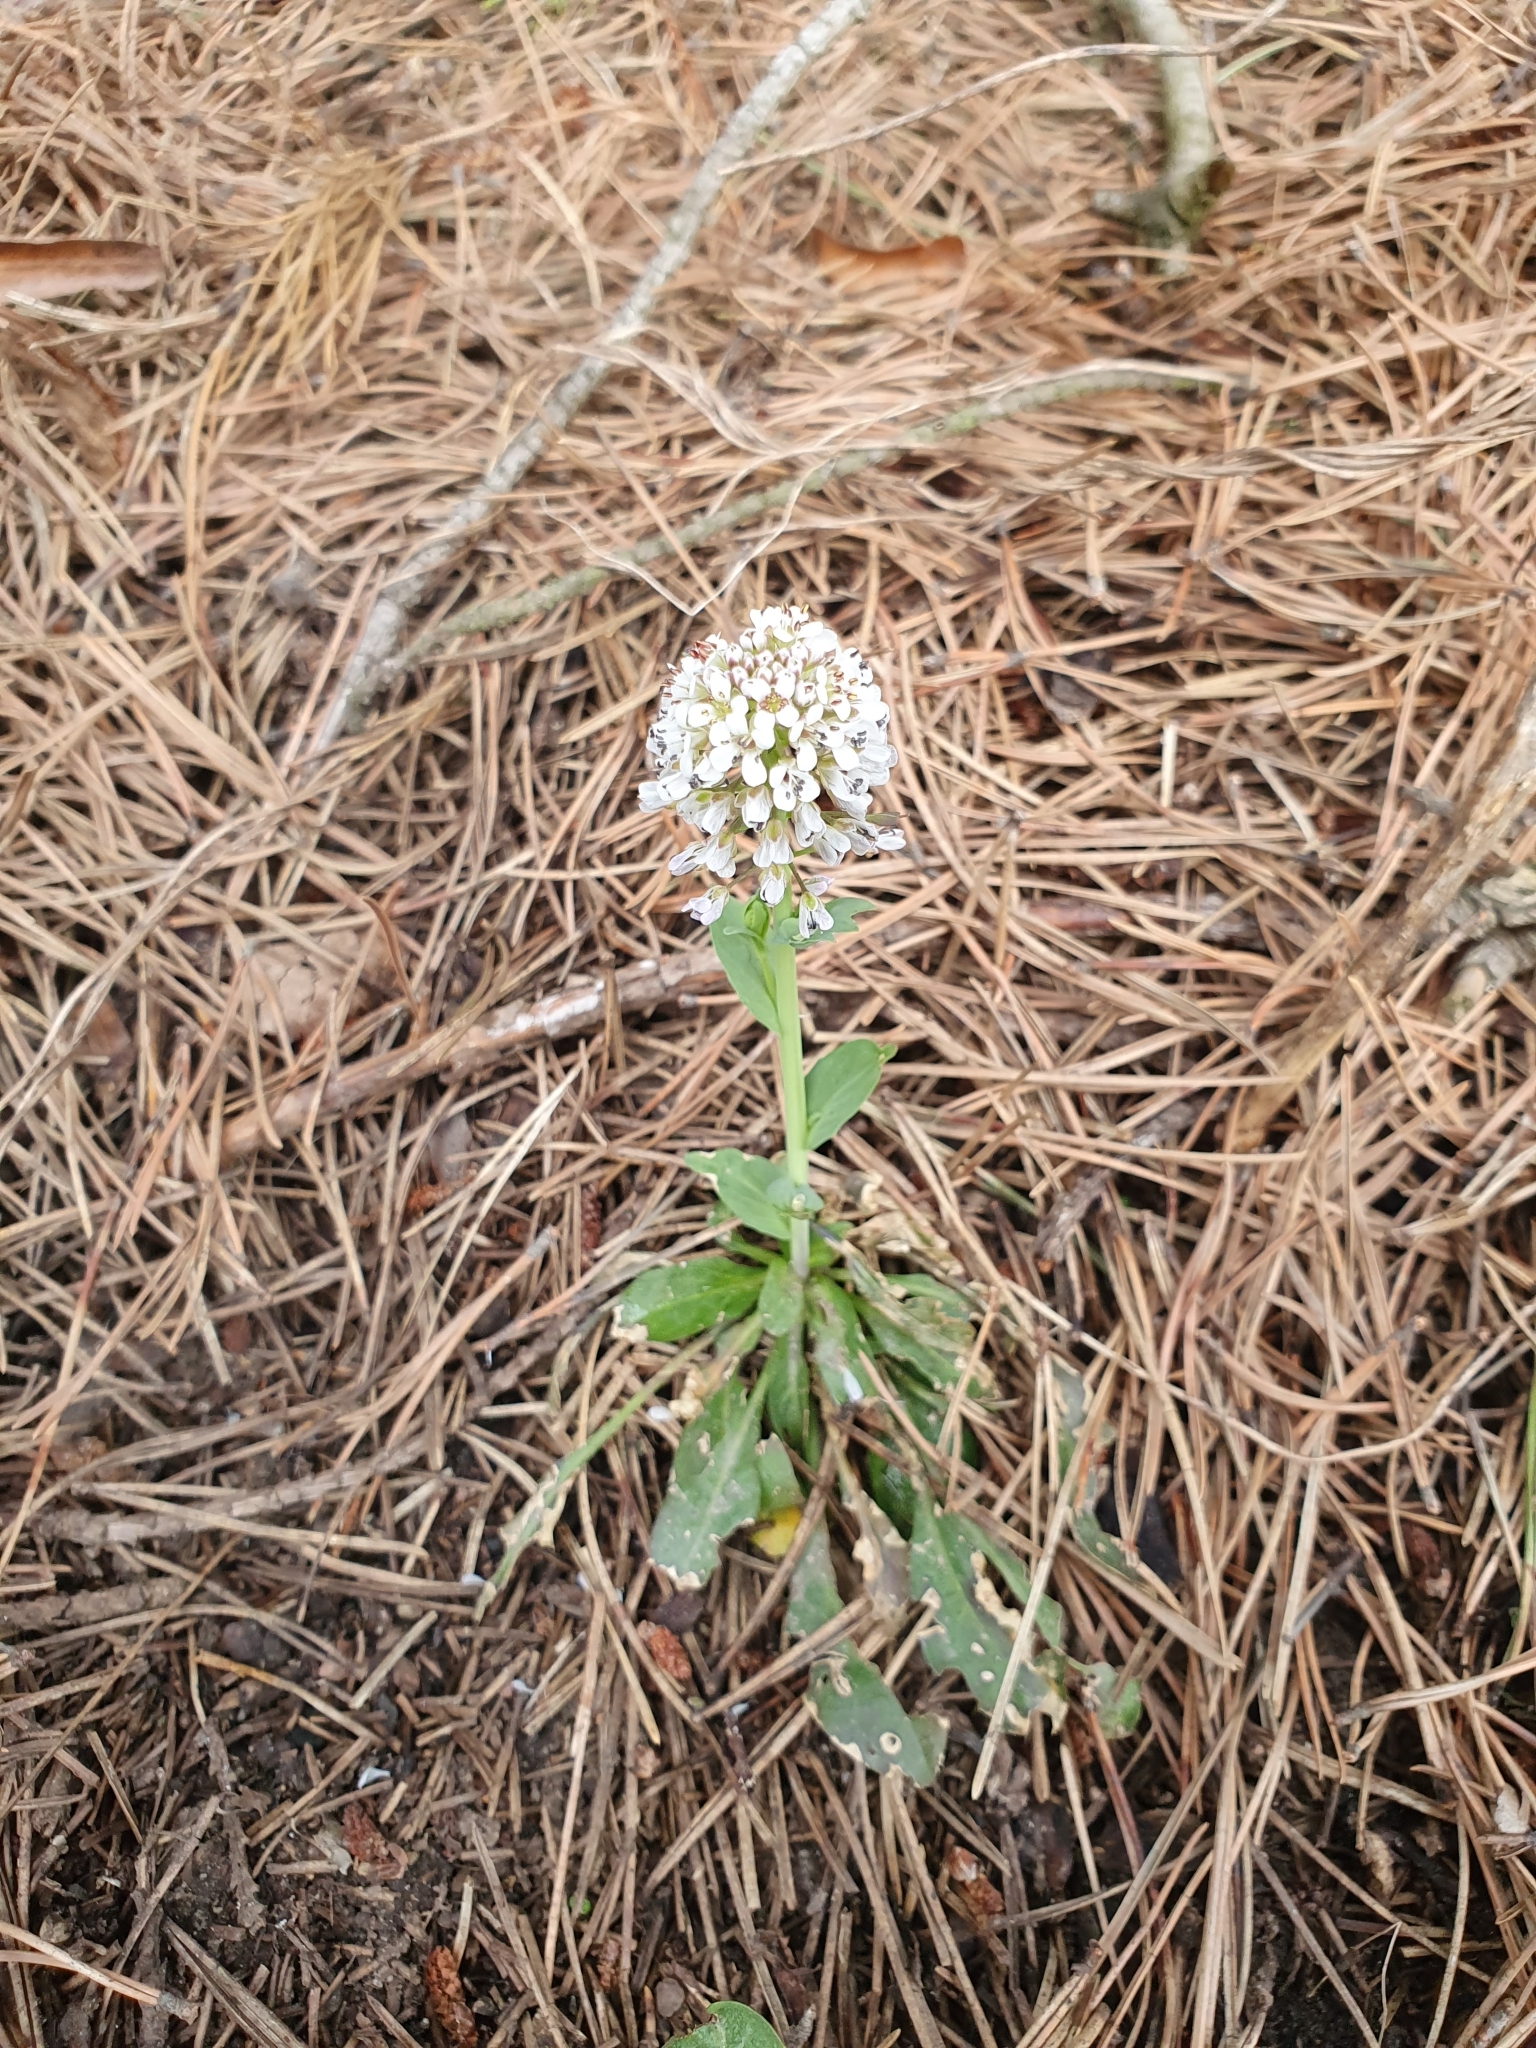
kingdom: Plantae
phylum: Tracheophyta
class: Magnoliopsida
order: Brassicales
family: Brassicaceae
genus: Noccaea
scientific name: Noccaea caerulescens
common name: Alpine pennycress
